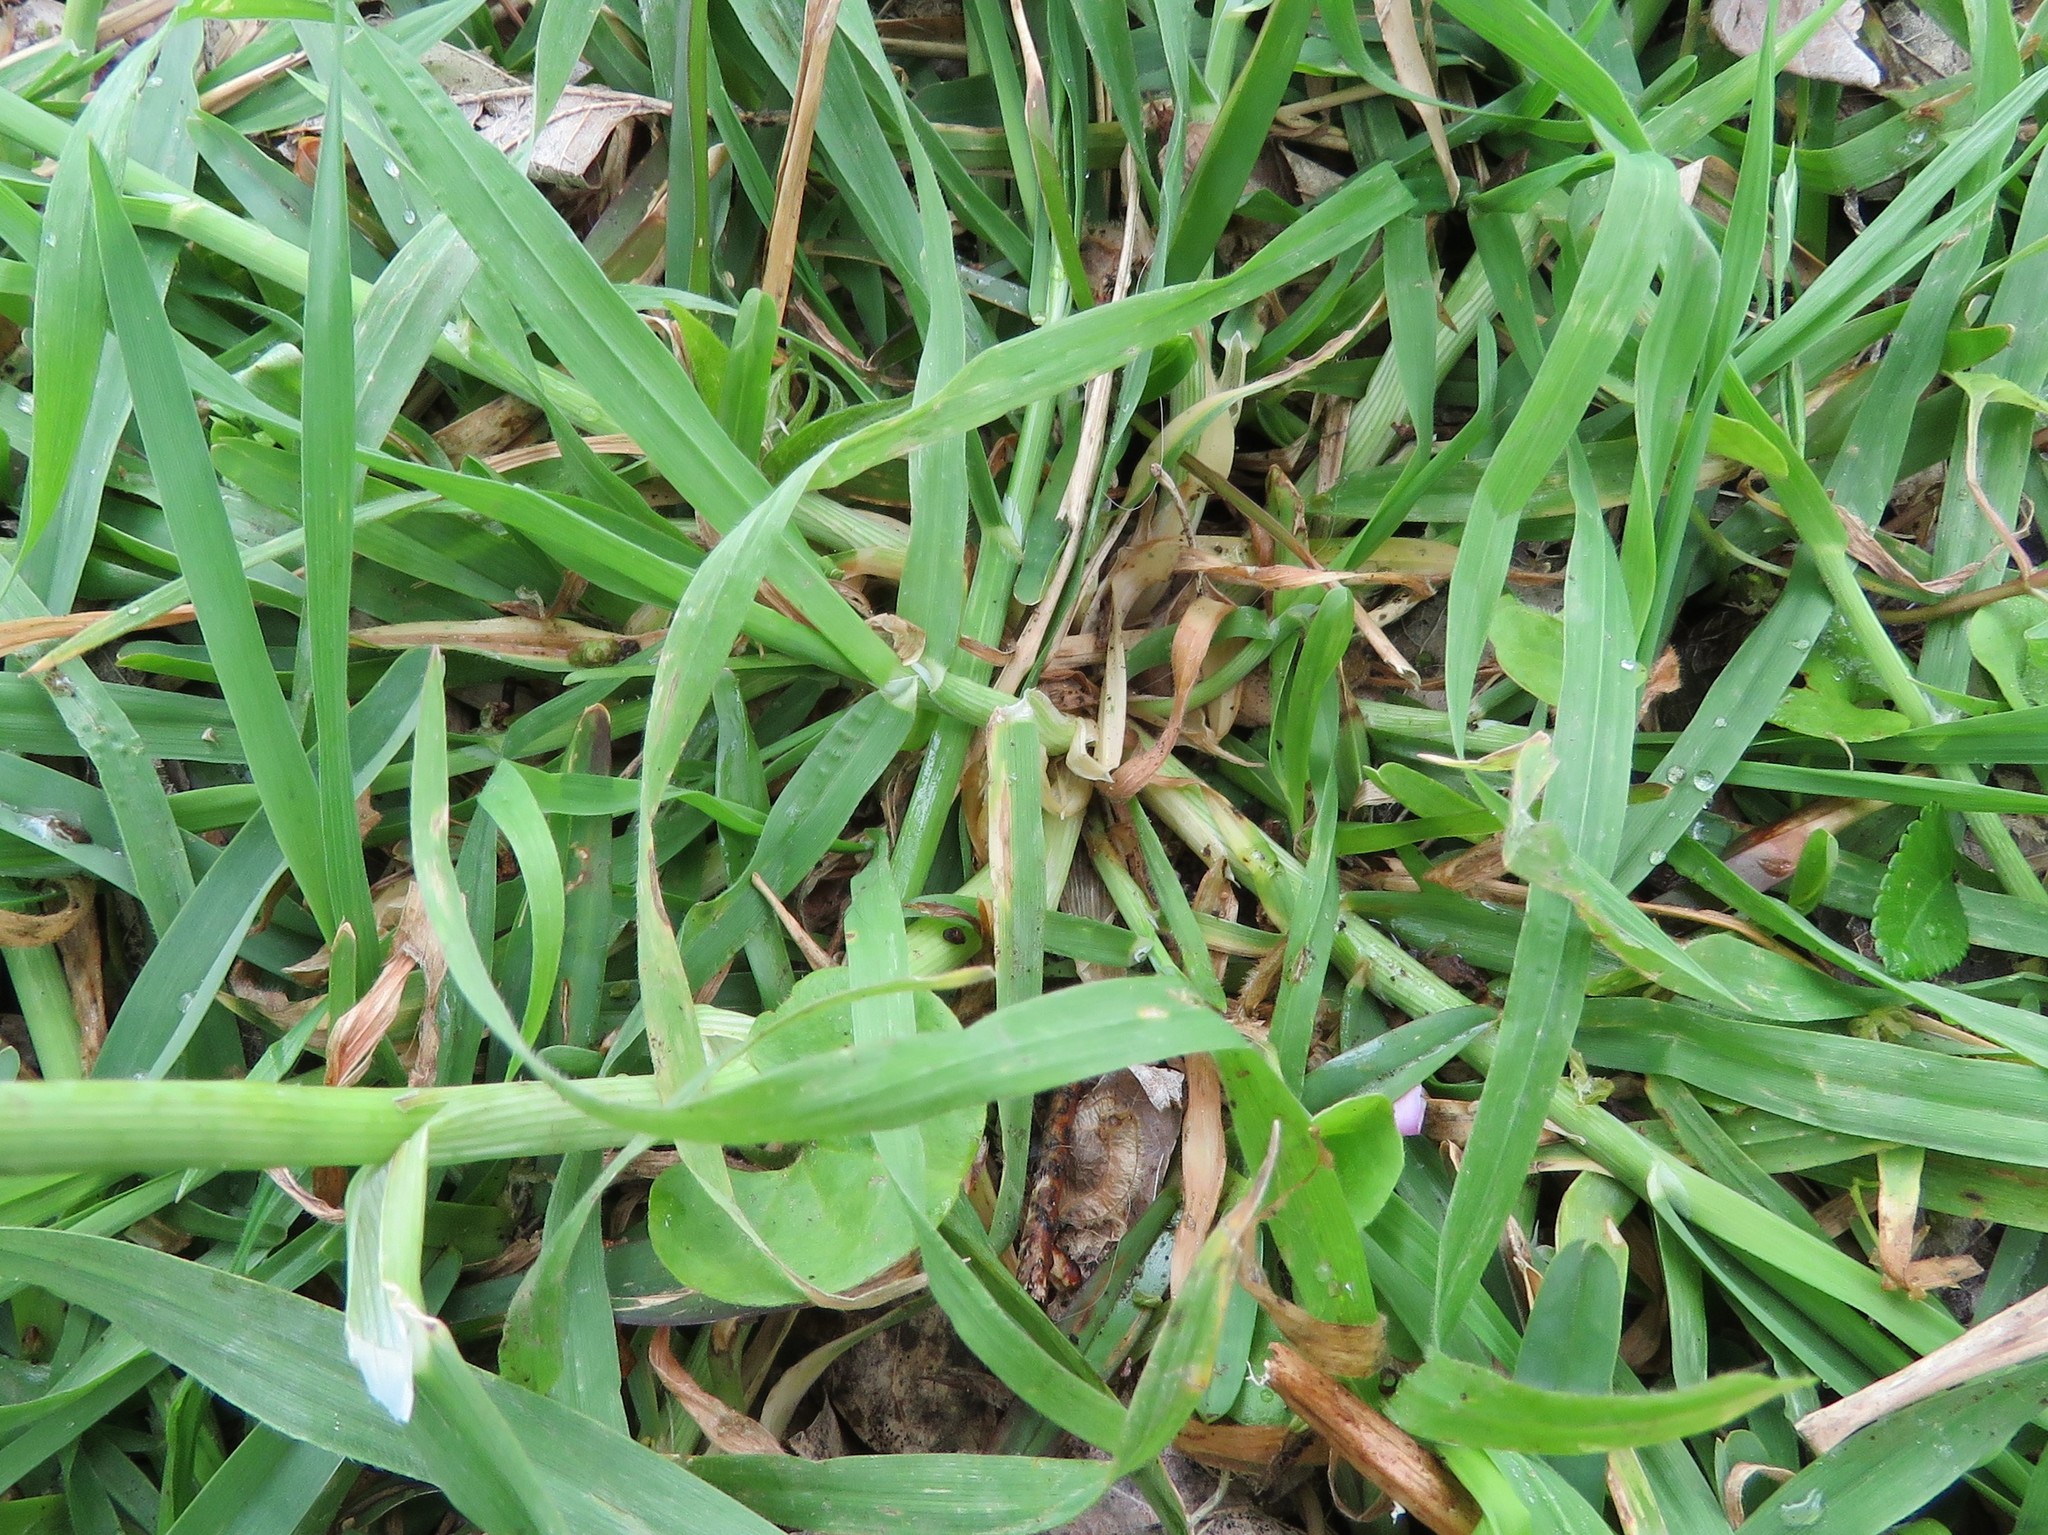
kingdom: Plantae
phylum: Tracheophyta
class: Liliopsida
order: Poales
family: Poaceae
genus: Bromus
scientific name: Bromus catharticus
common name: Rescuegrass
